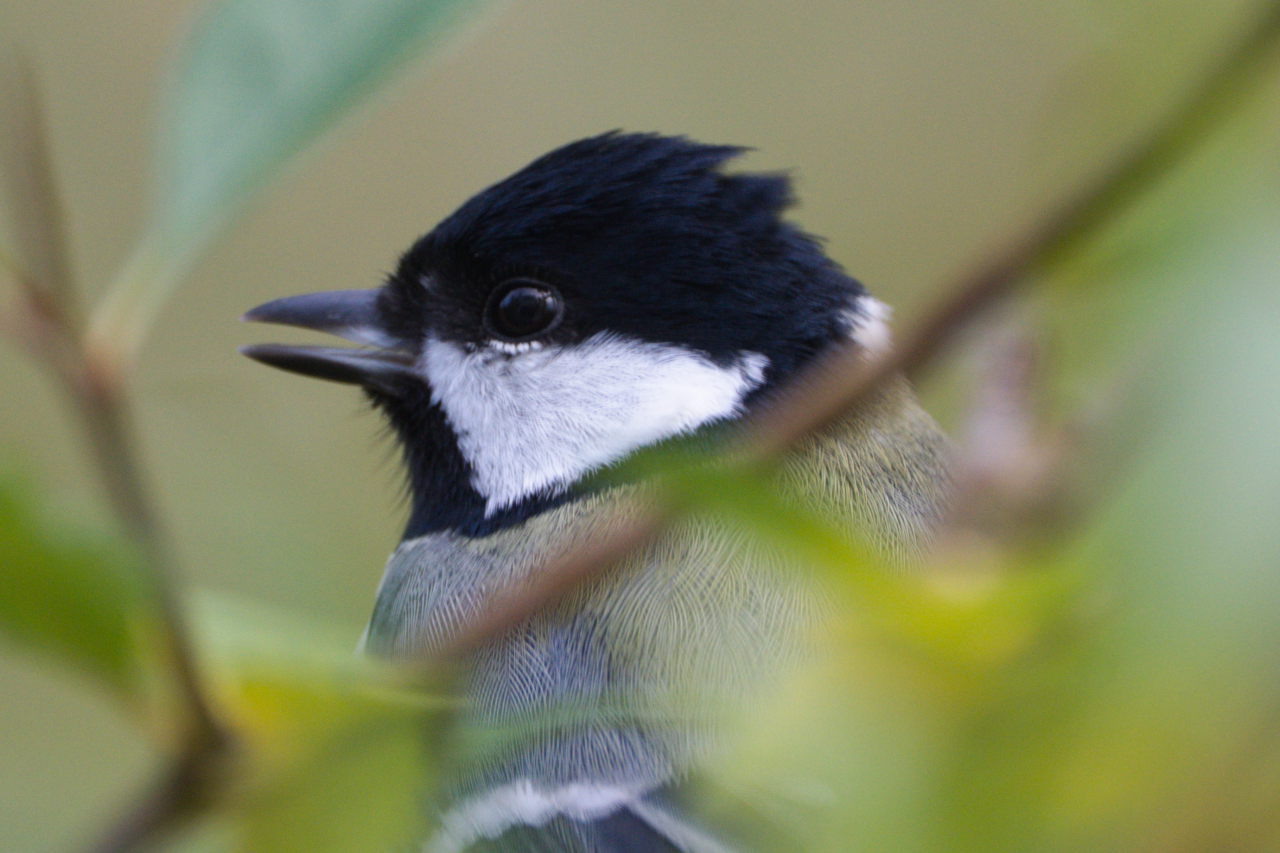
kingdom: Animalia
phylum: Chordata
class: Aves
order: Passeriformes
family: Paridae
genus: Parus
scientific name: Parus major
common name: Great tit
